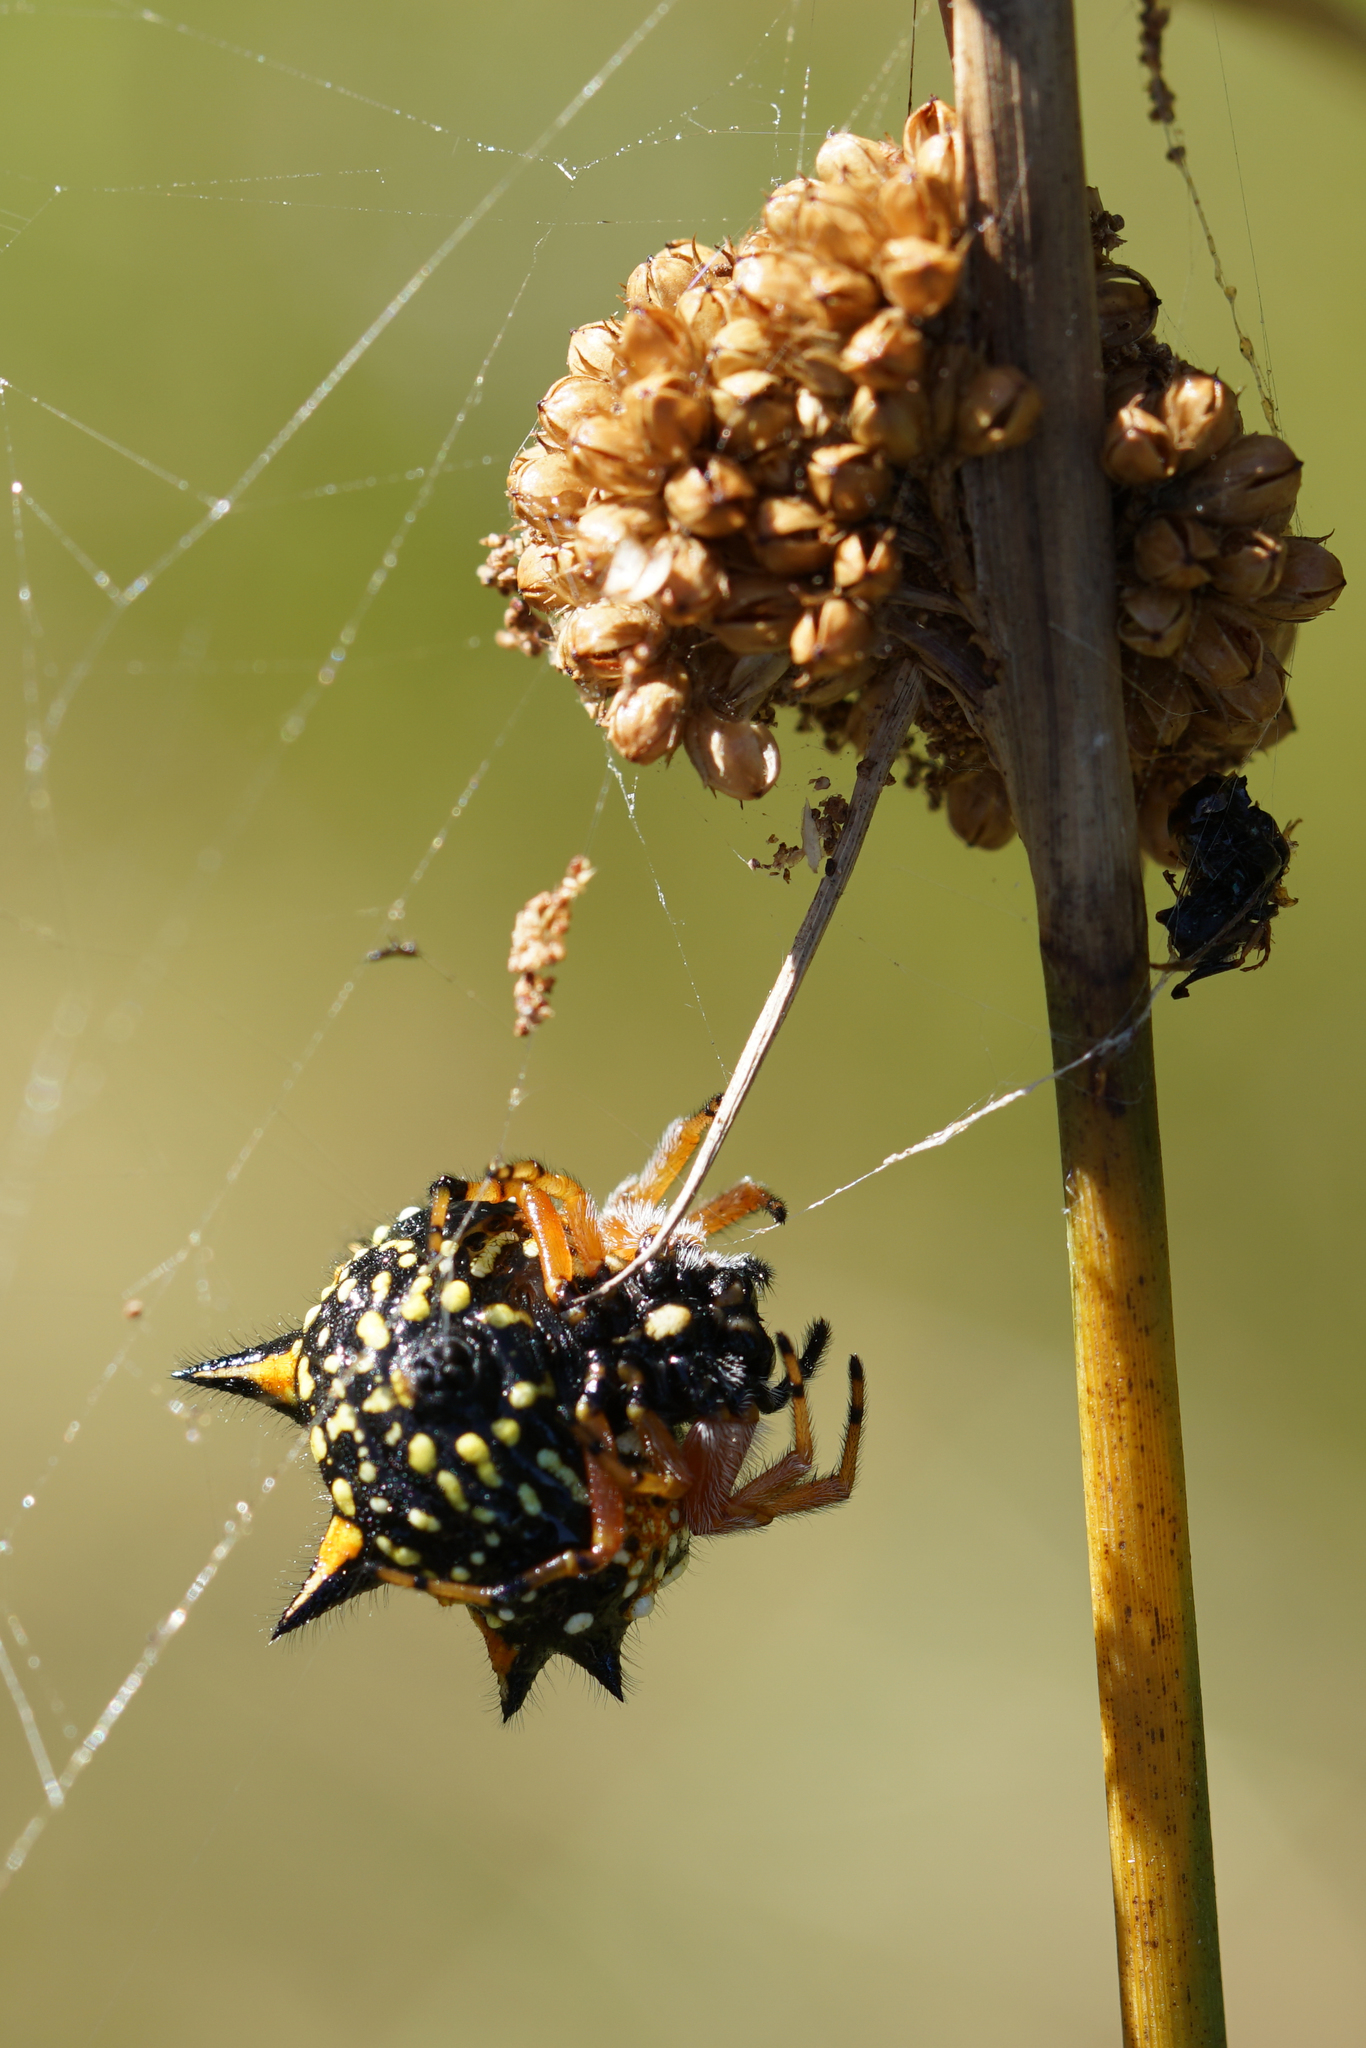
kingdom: Animalia
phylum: Arthropoda
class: Arachnida
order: Araneae
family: Araneidae
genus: Austracantha
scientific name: Austracantha minax
